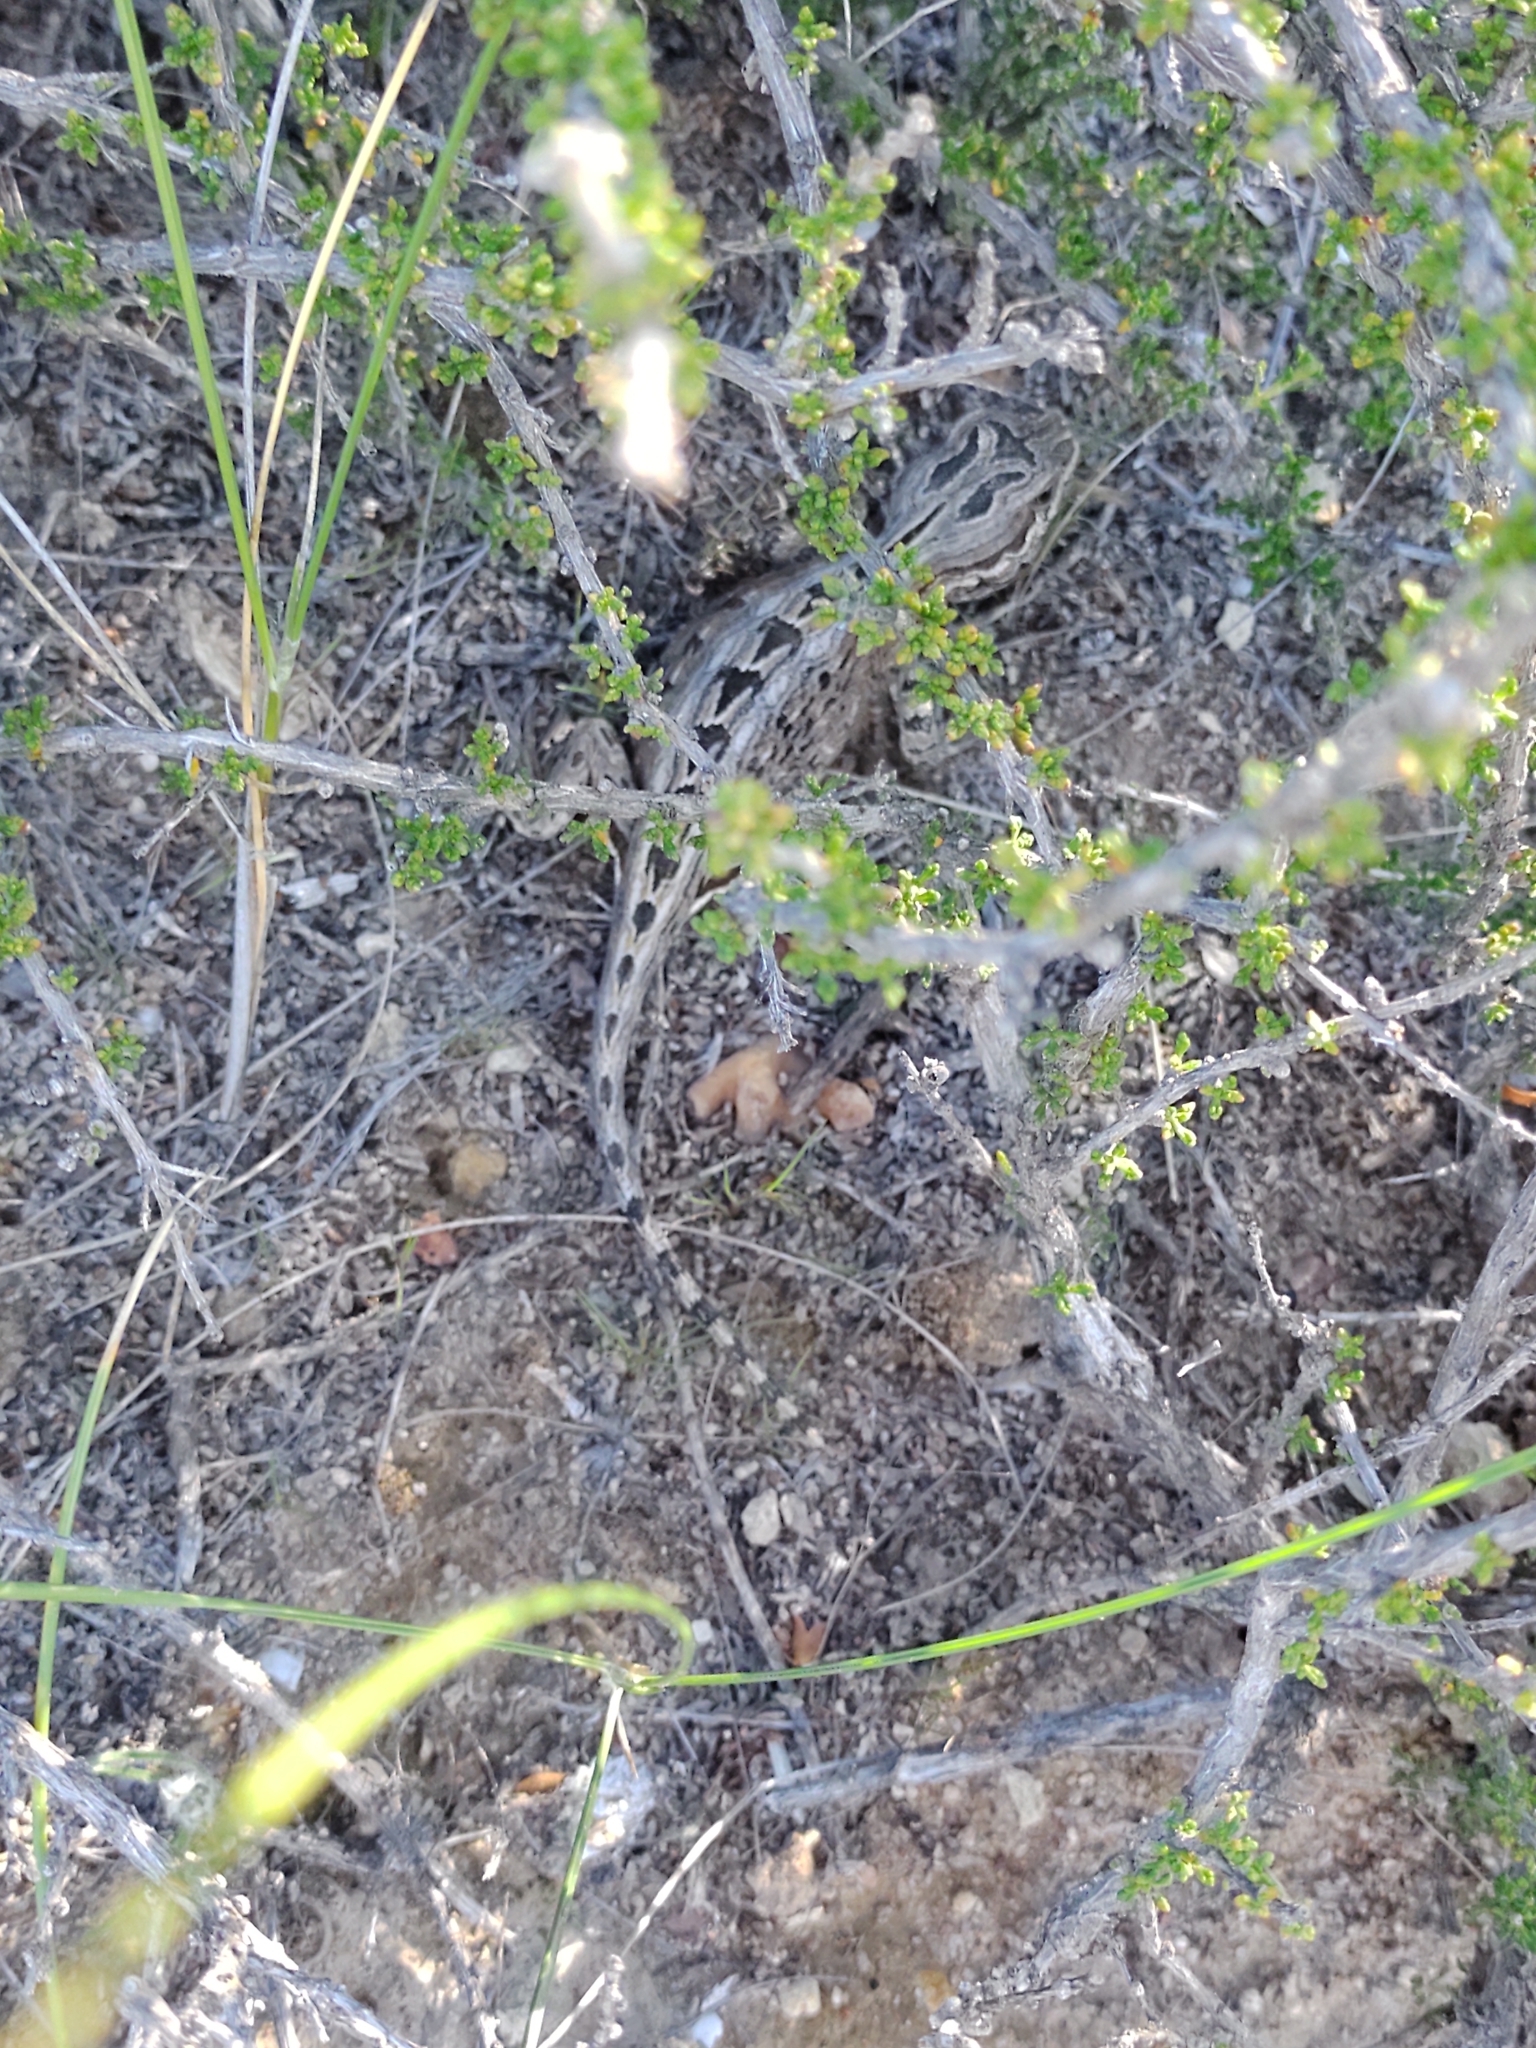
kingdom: Animalia
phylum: Chordata
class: Squamata
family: Leiosauridae
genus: Leiosaurus
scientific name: Leiosaurus bellii
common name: Bell's anole
